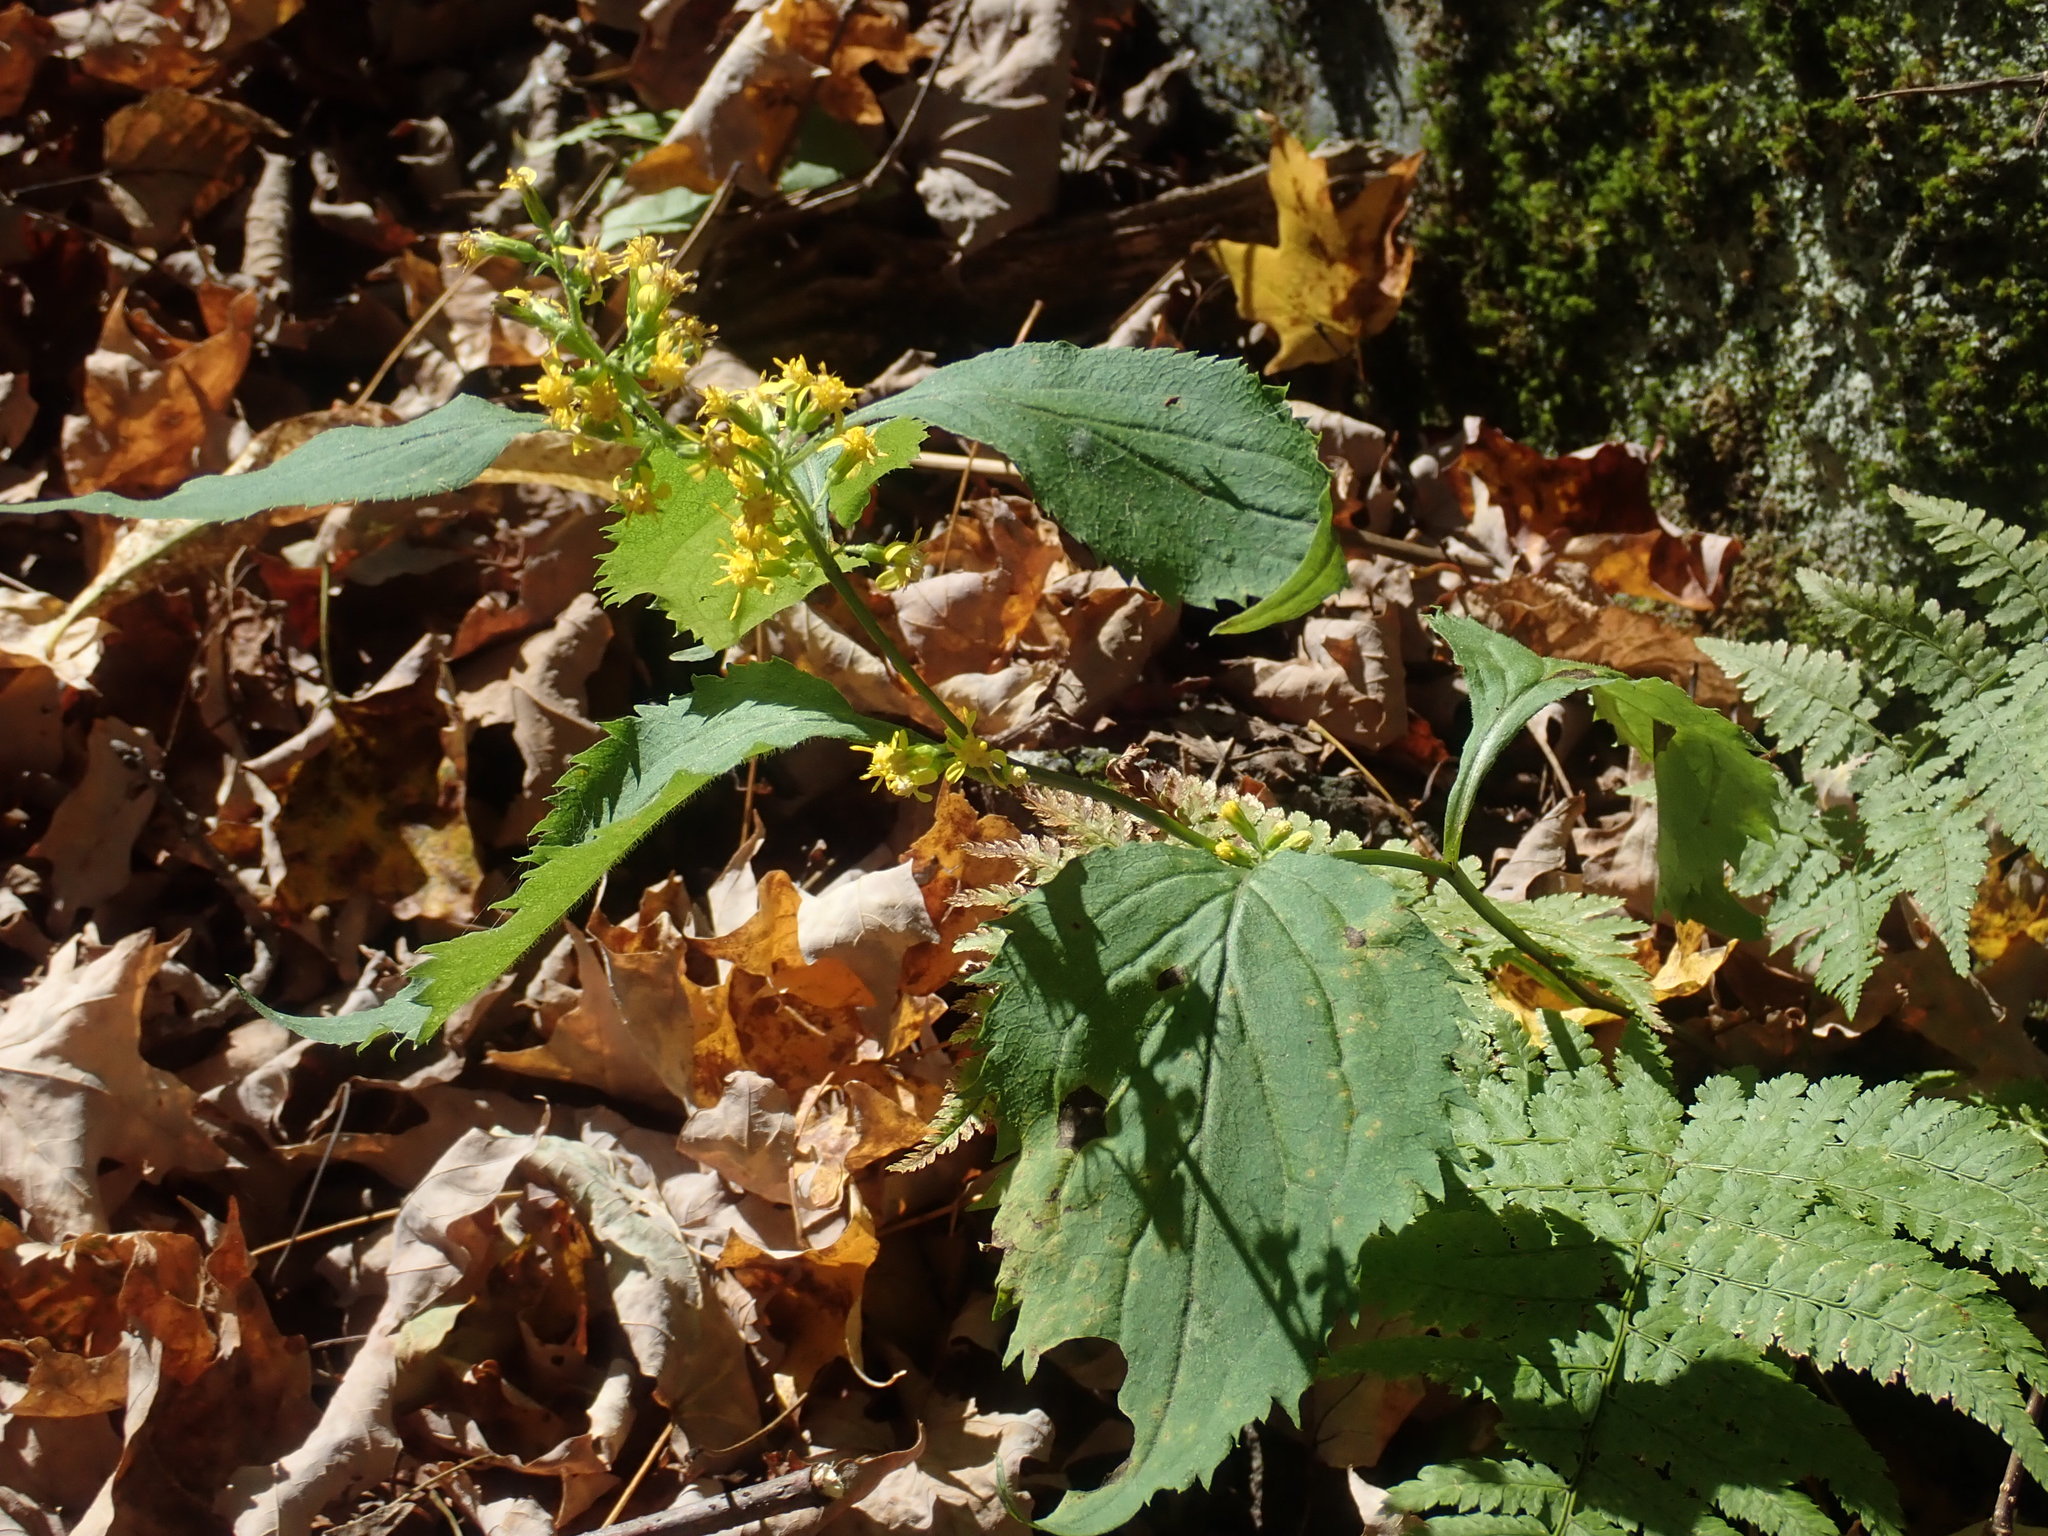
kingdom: Plantae
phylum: Tracheophyta
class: Magnoliopsida
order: Asterales
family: Asteraceae
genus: Solidago
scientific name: Solidago flexicaulis
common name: Zig-zag goldenrod
